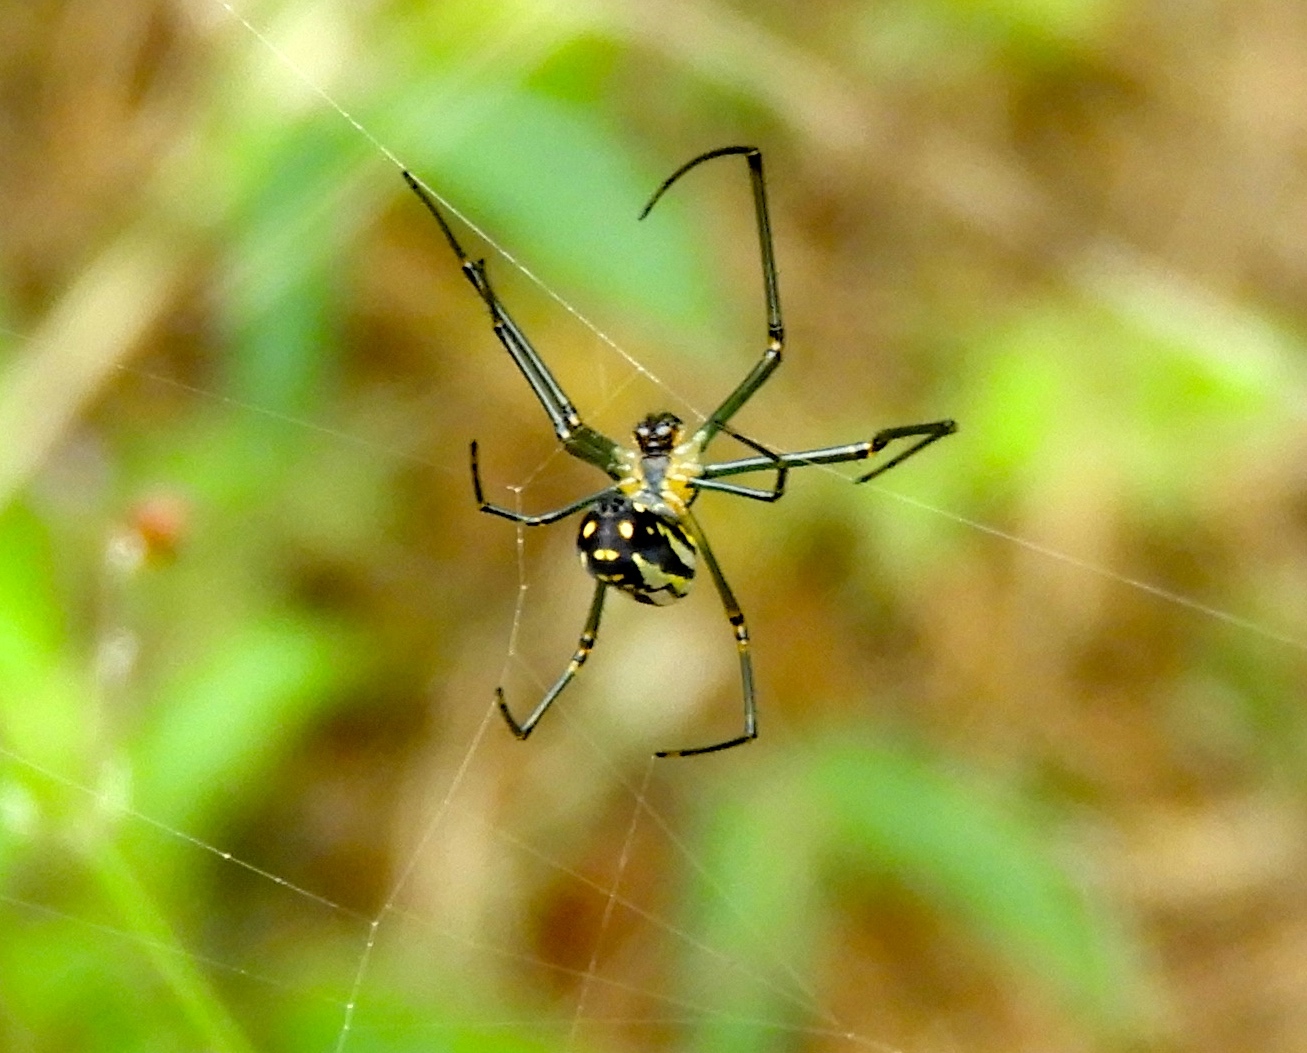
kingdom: Animalia
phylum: Arthropoda
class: Arachnida
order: Araneae
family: Tetragnathidae
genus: Leucauge
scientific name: Leucauge
